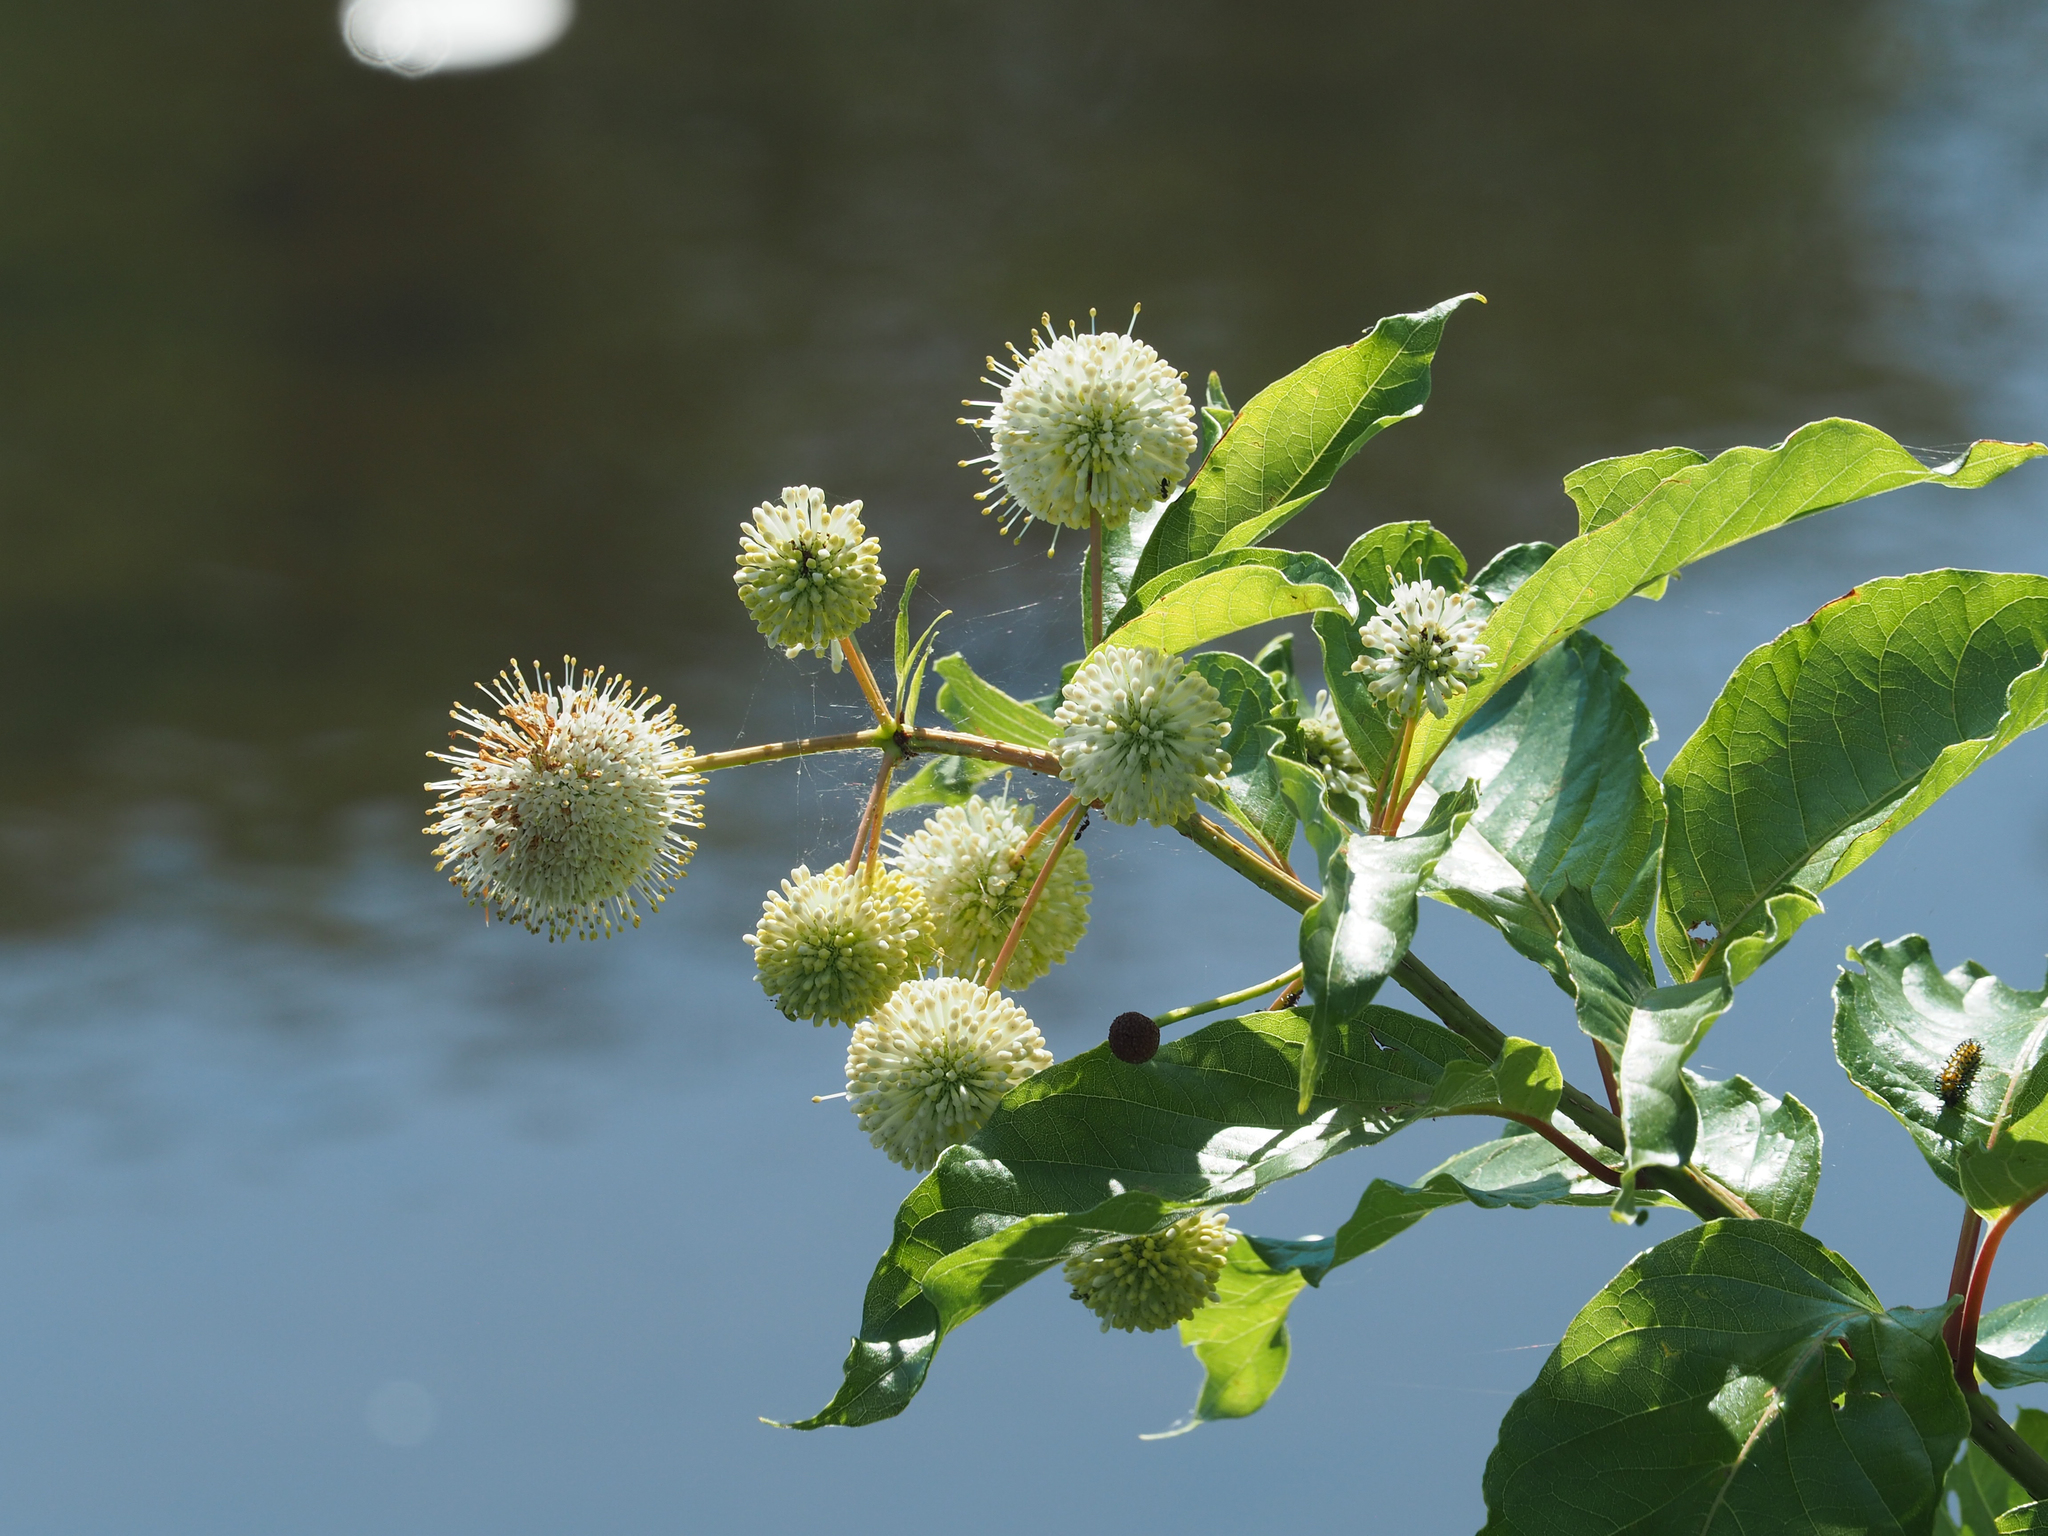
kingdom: Plantae
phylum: Tracheophyta
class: Magnoliopsida
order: Gentianales
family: Rubiaceae
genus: Cephalanthus
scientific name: Cephalanthus occidentalis
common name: Button-willow
